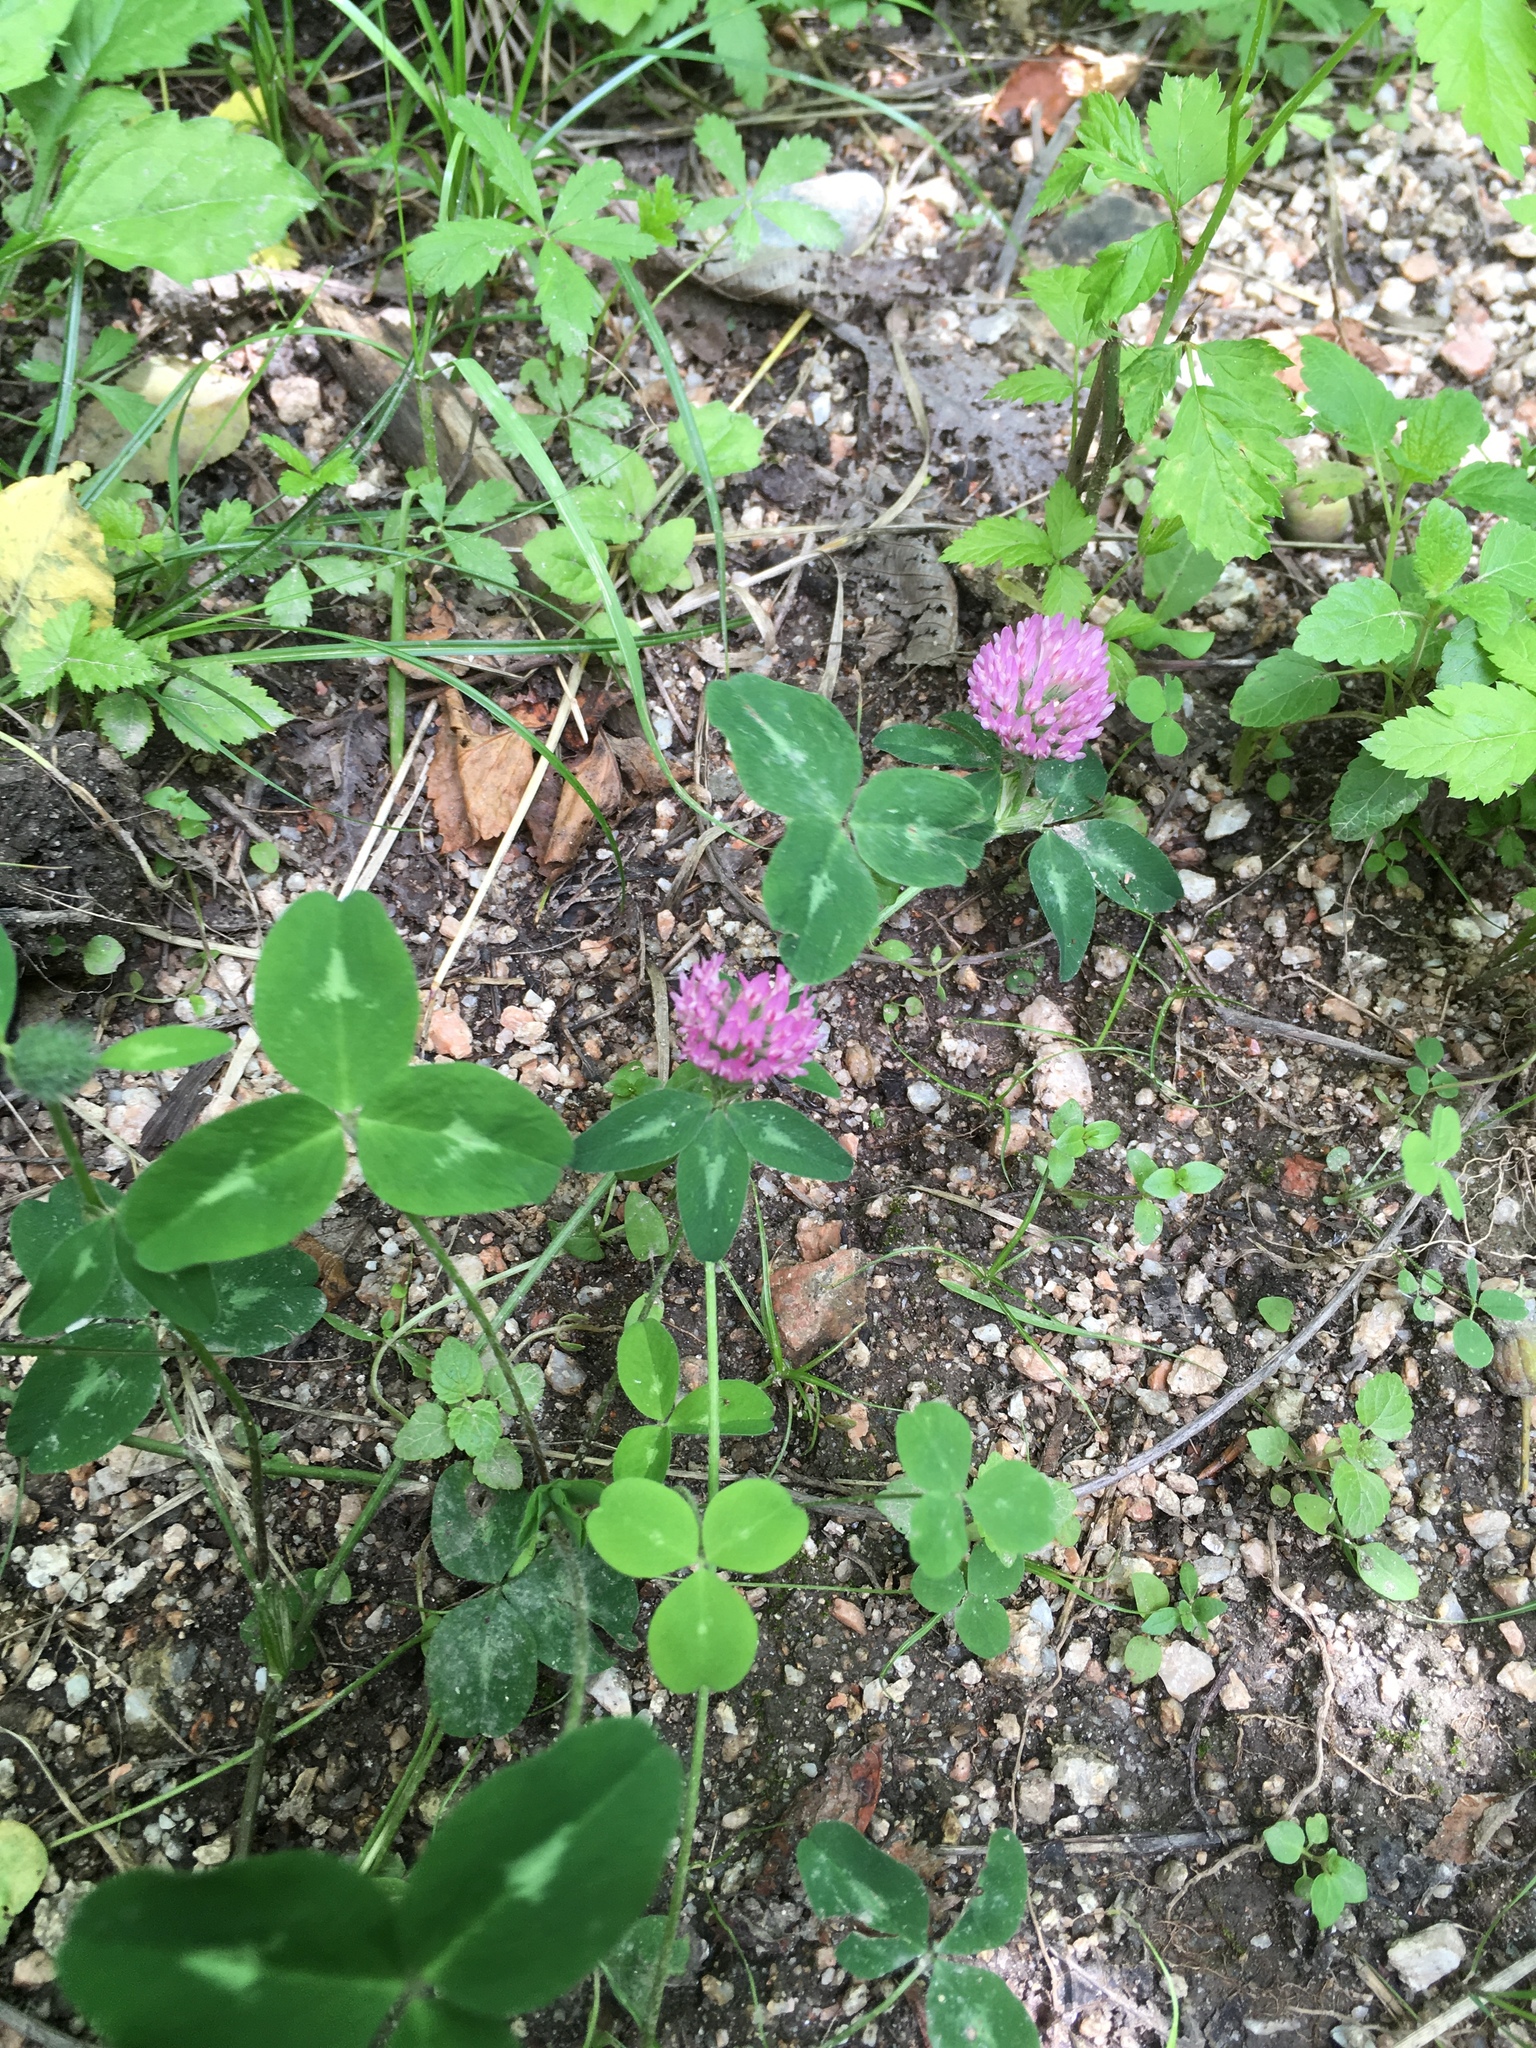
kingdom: Plantae
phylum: Tracheophyta
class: Magnoliopsida
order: Fabales
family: Fabaceae
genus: Trifolium
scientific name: Trifolium pratense
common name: Red clover
